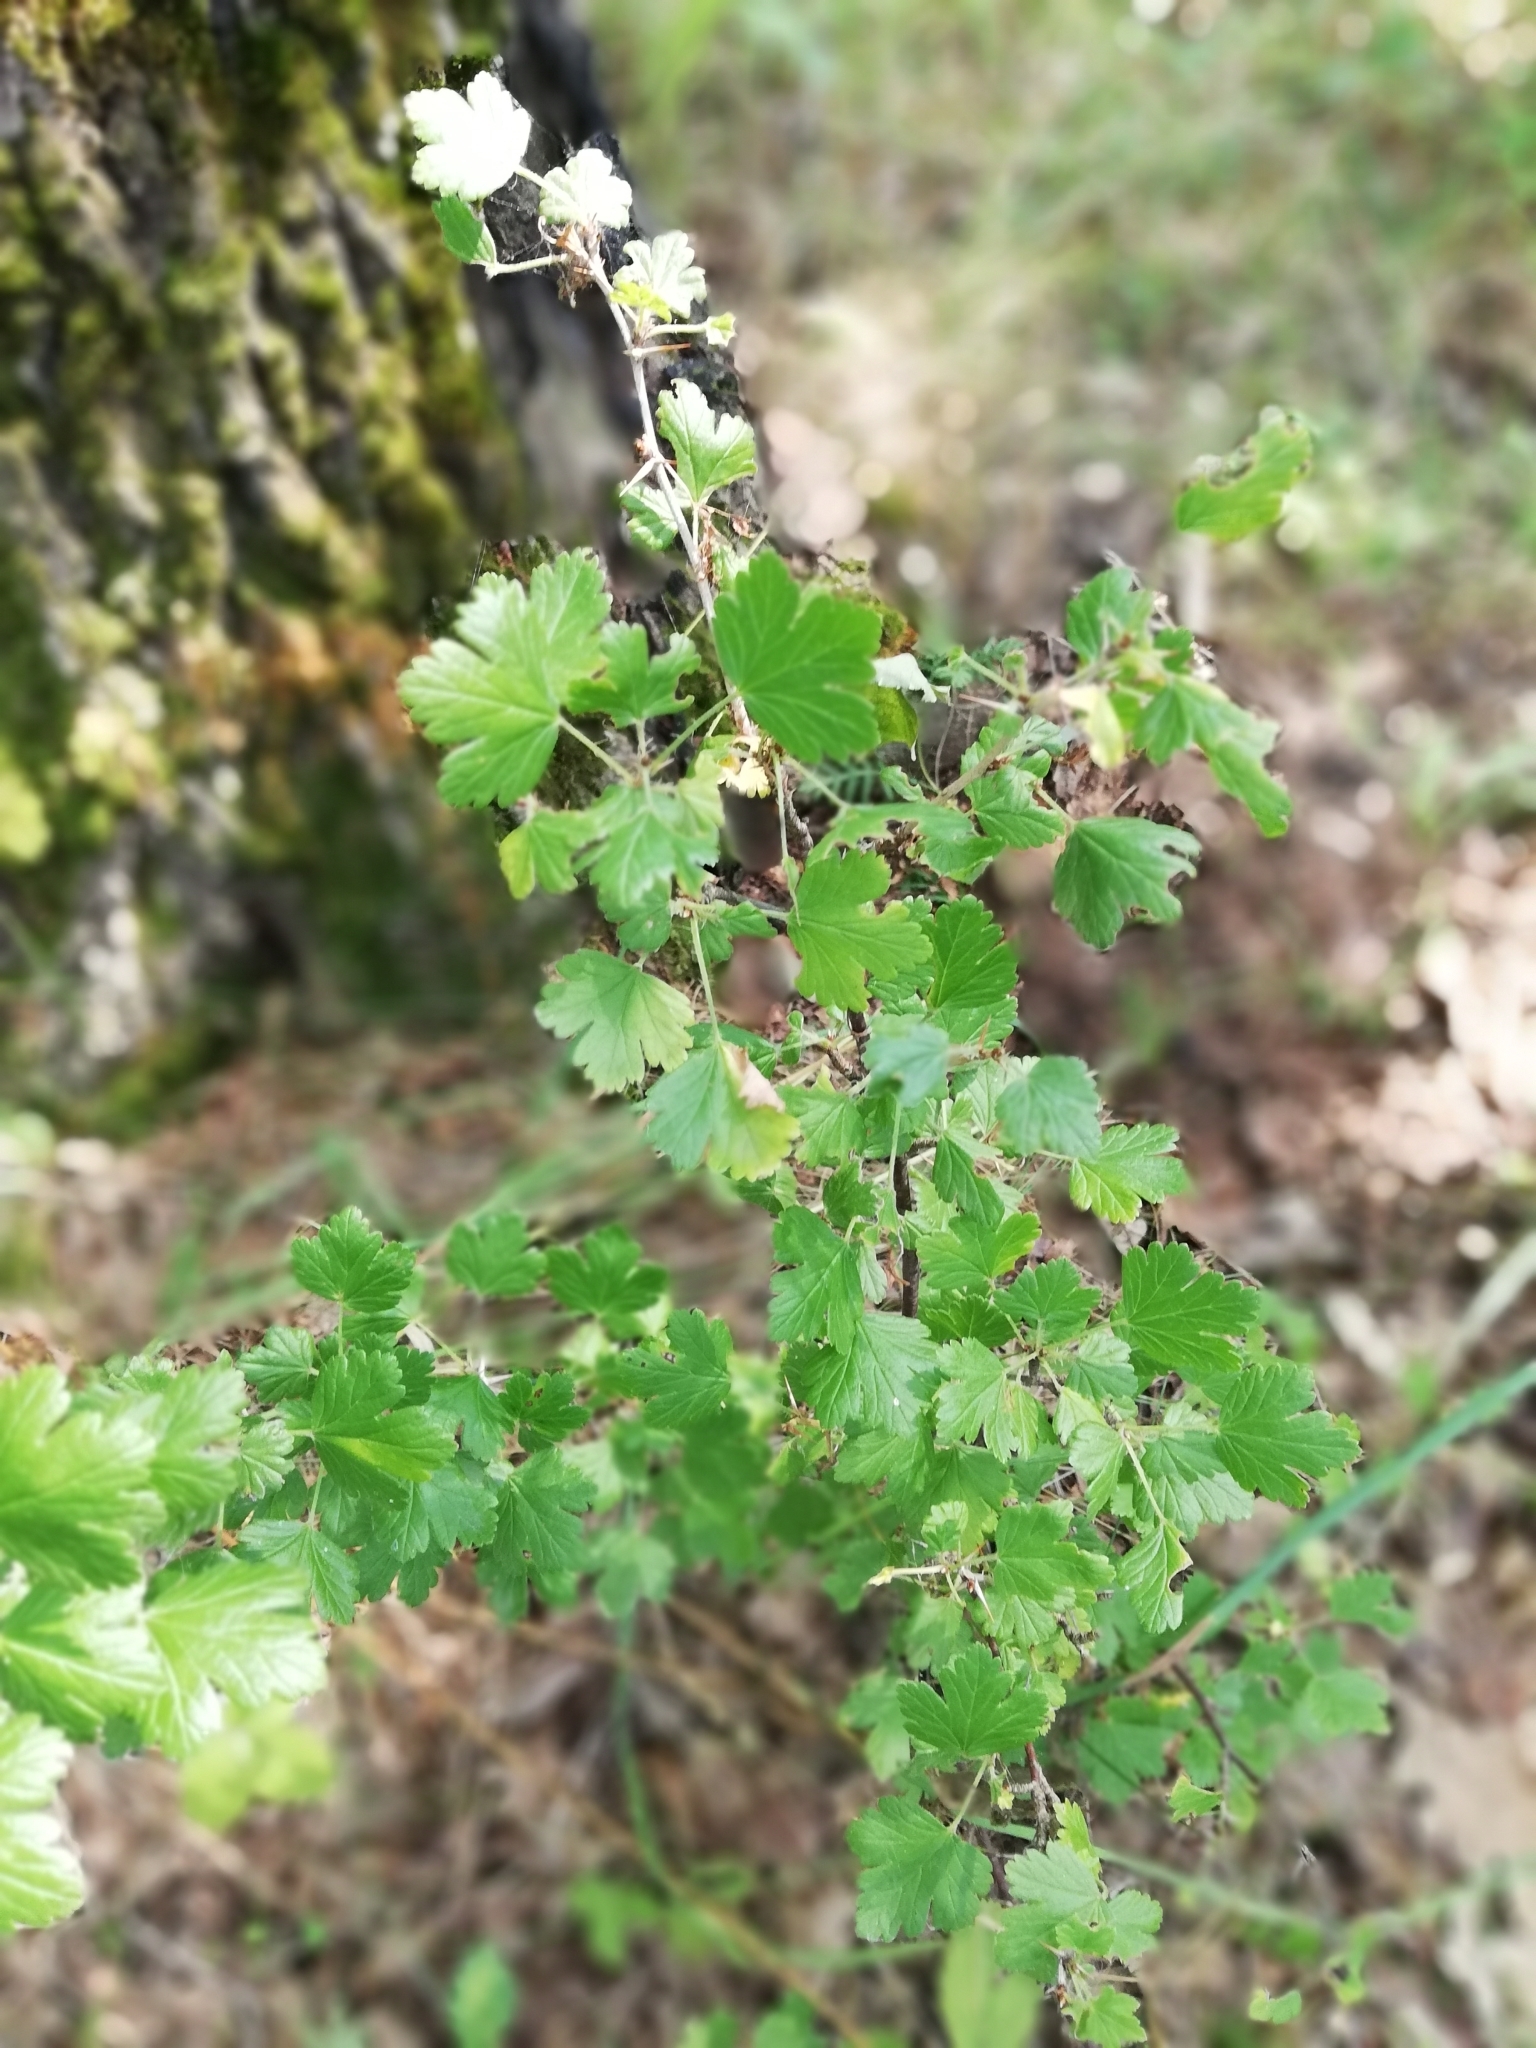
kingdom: Plantae
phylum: Tracheophyta
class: Magnoliopsida
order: Saxifragales
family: Grossulariaceae
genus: Ribes
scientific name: Ribes uva-crispa
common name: Gooseberry
